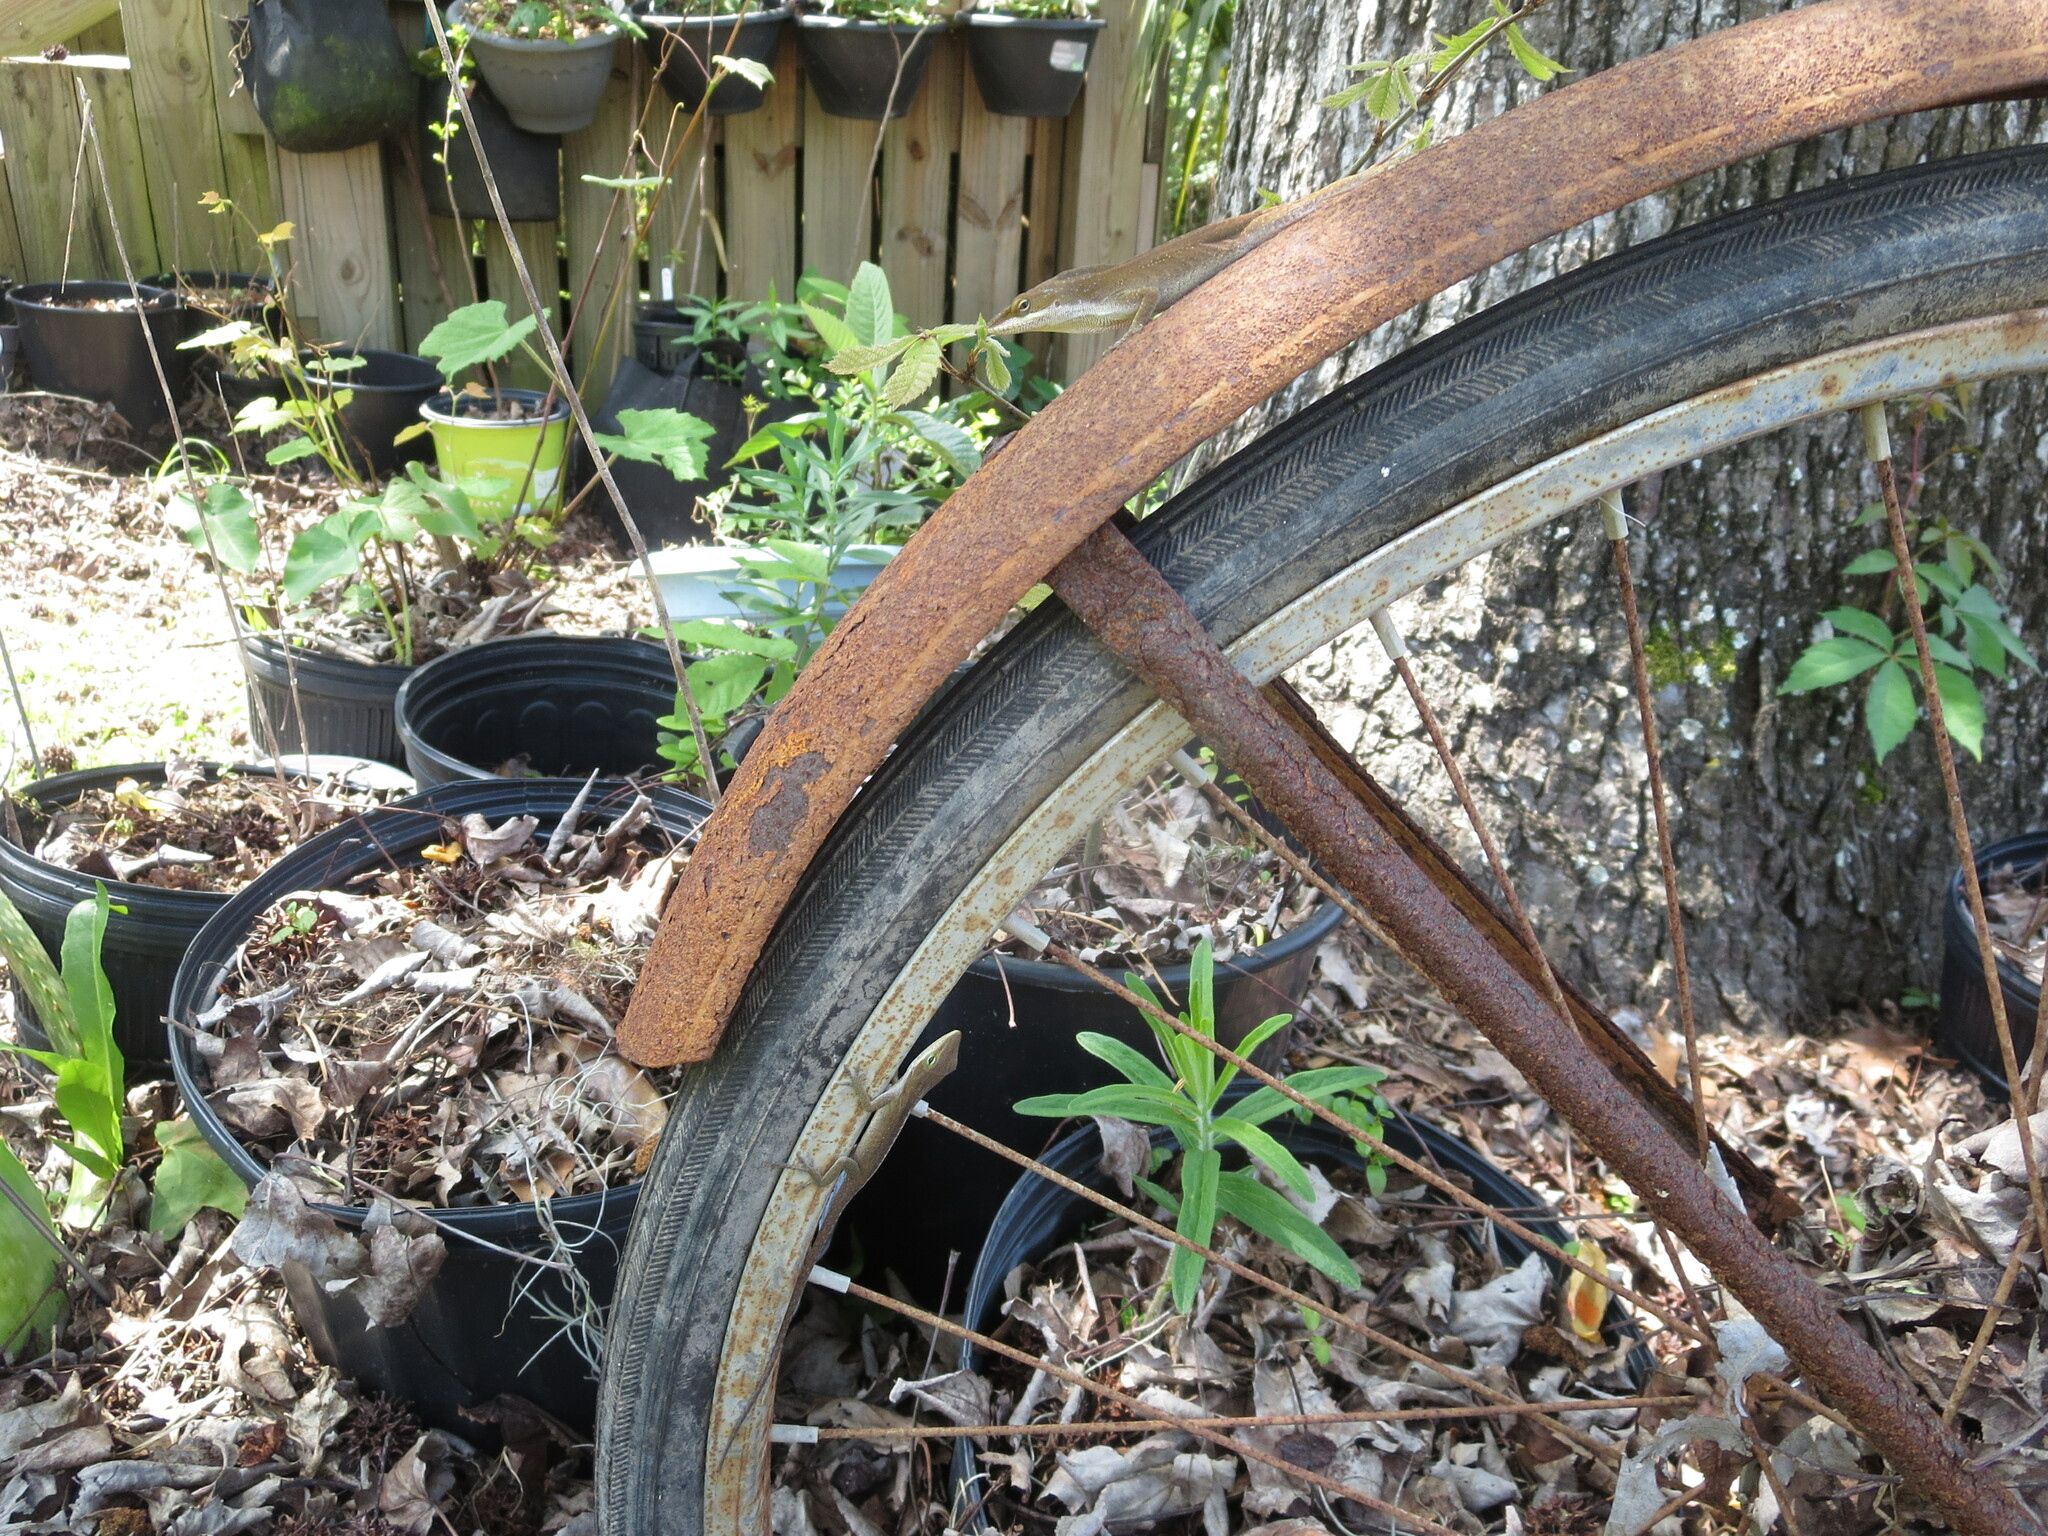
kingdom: Animalia
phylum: Chordata
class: Squamata
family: Dactyloidae
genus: Anolis
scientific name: Anolis carolinensis
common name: Green anole
